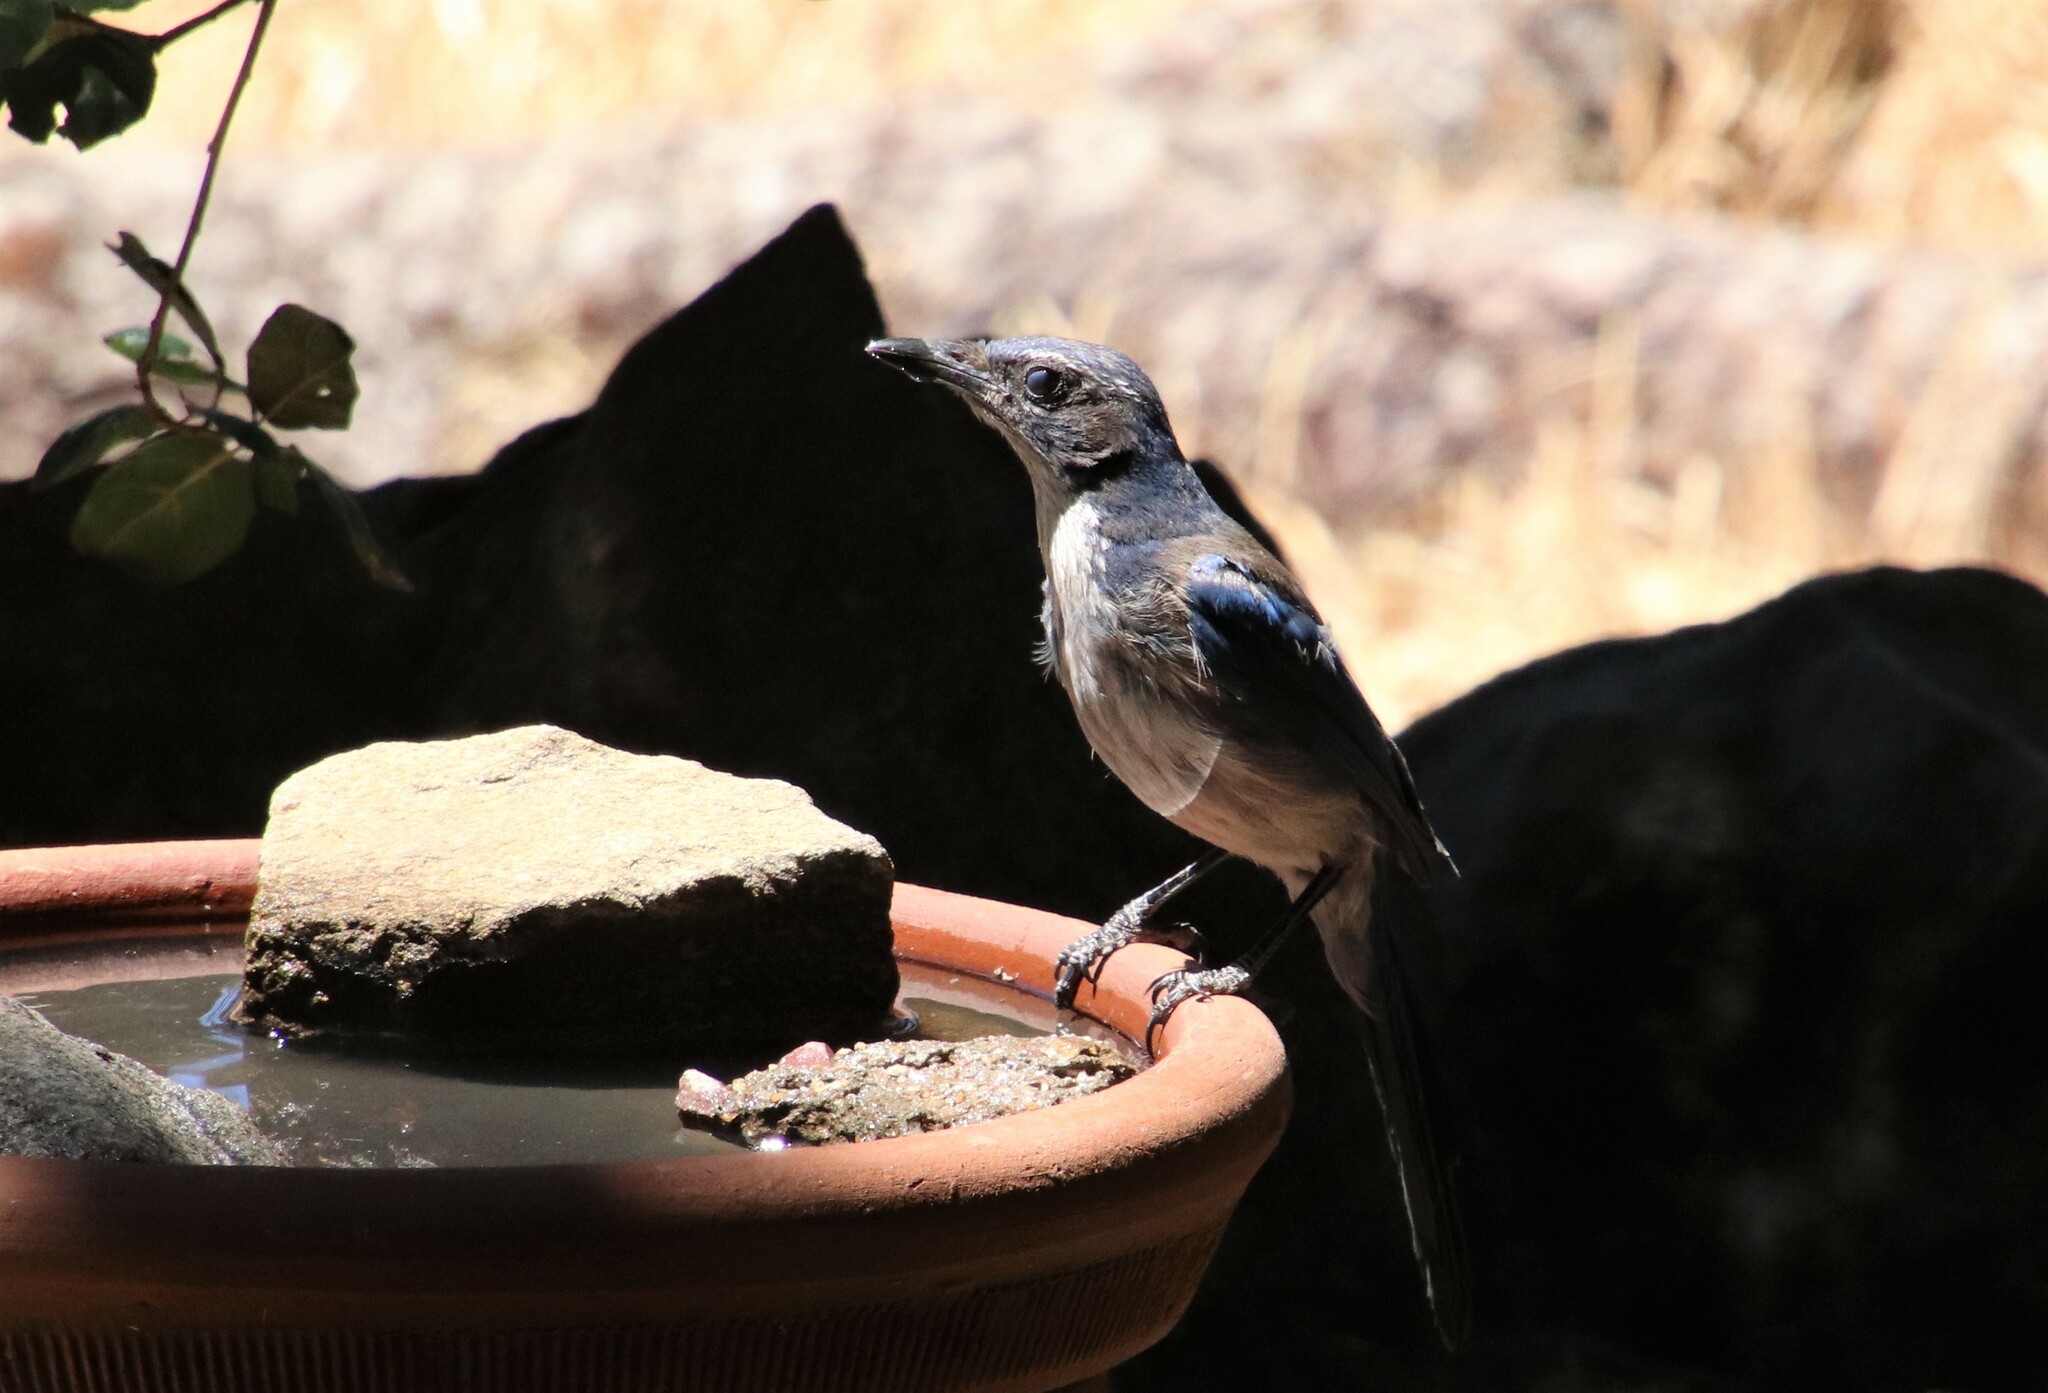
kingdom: Animalia
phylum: Chordata
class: Aves
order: Passeriformes
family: Corvidae
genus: Aphelocoma
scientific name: Aphelocoma californica
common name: California scrub-jay
